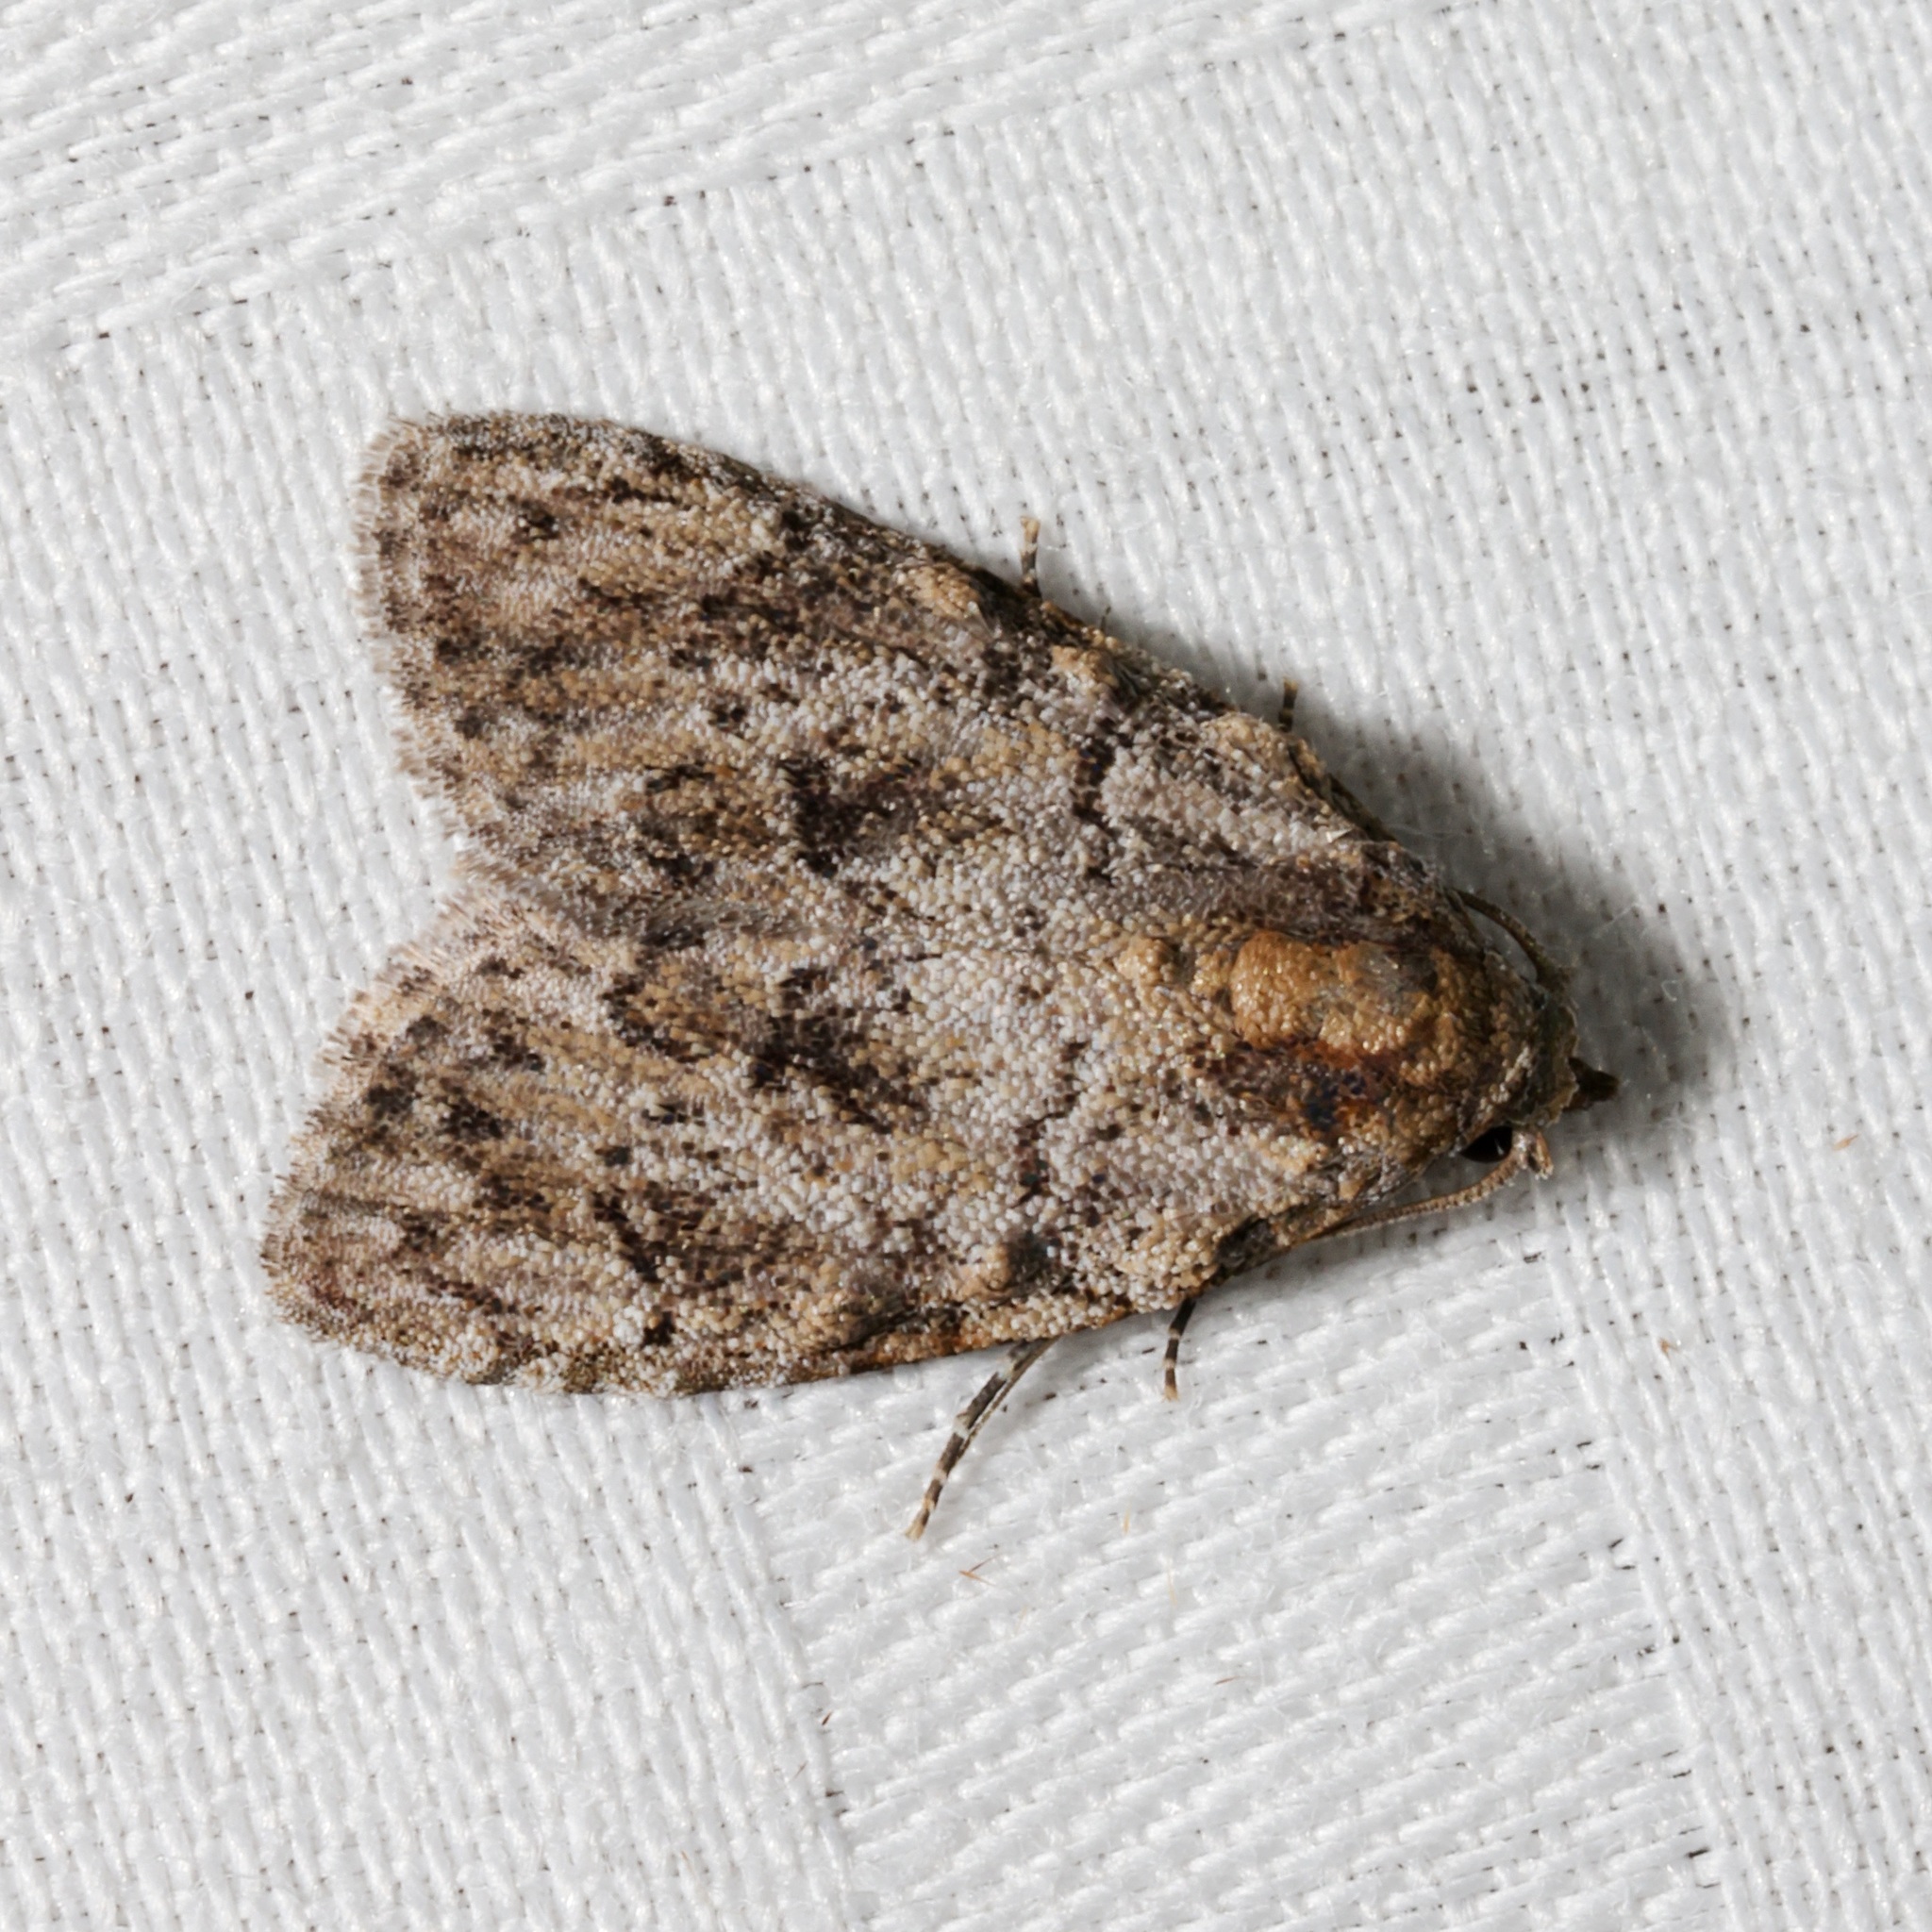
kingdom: Animalia
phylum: Arthropoda
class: Insecta
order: Lepidoptera
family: Nolidae
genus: Meganola
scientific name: Meganola zolotuhini
